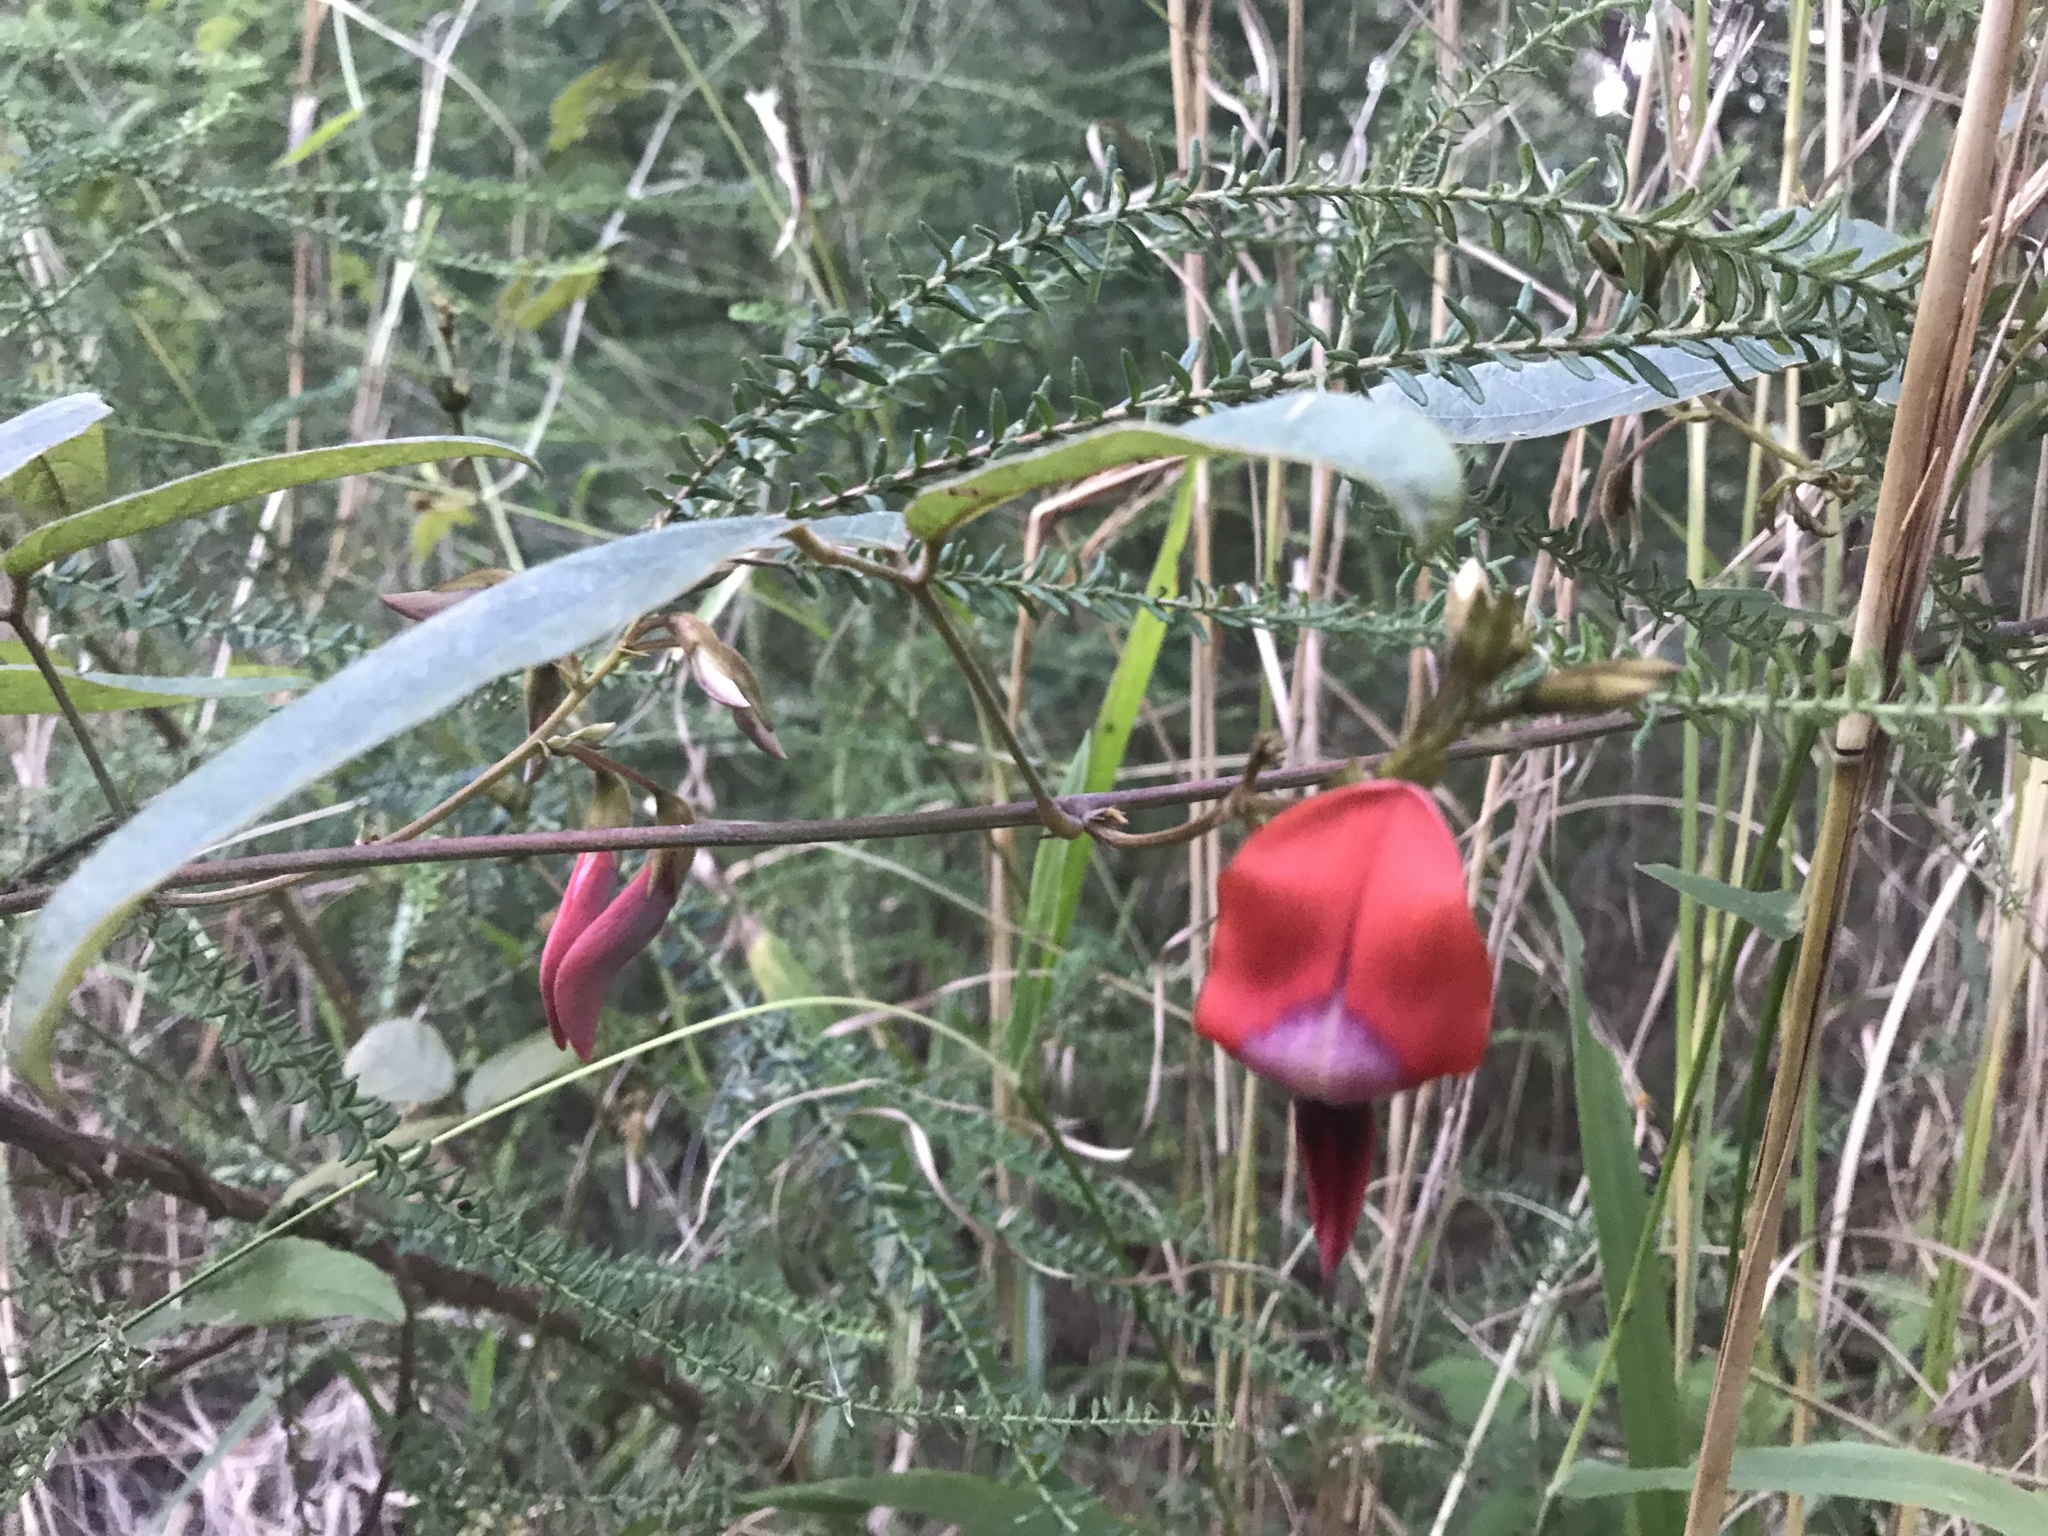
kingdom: Plantae
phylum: Tracheophyta
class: Magnoliopsida
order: Fabales
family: Fabaceae
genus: Kennedia
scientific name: Kennedia rubicunda
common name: Red kennedy-pea
